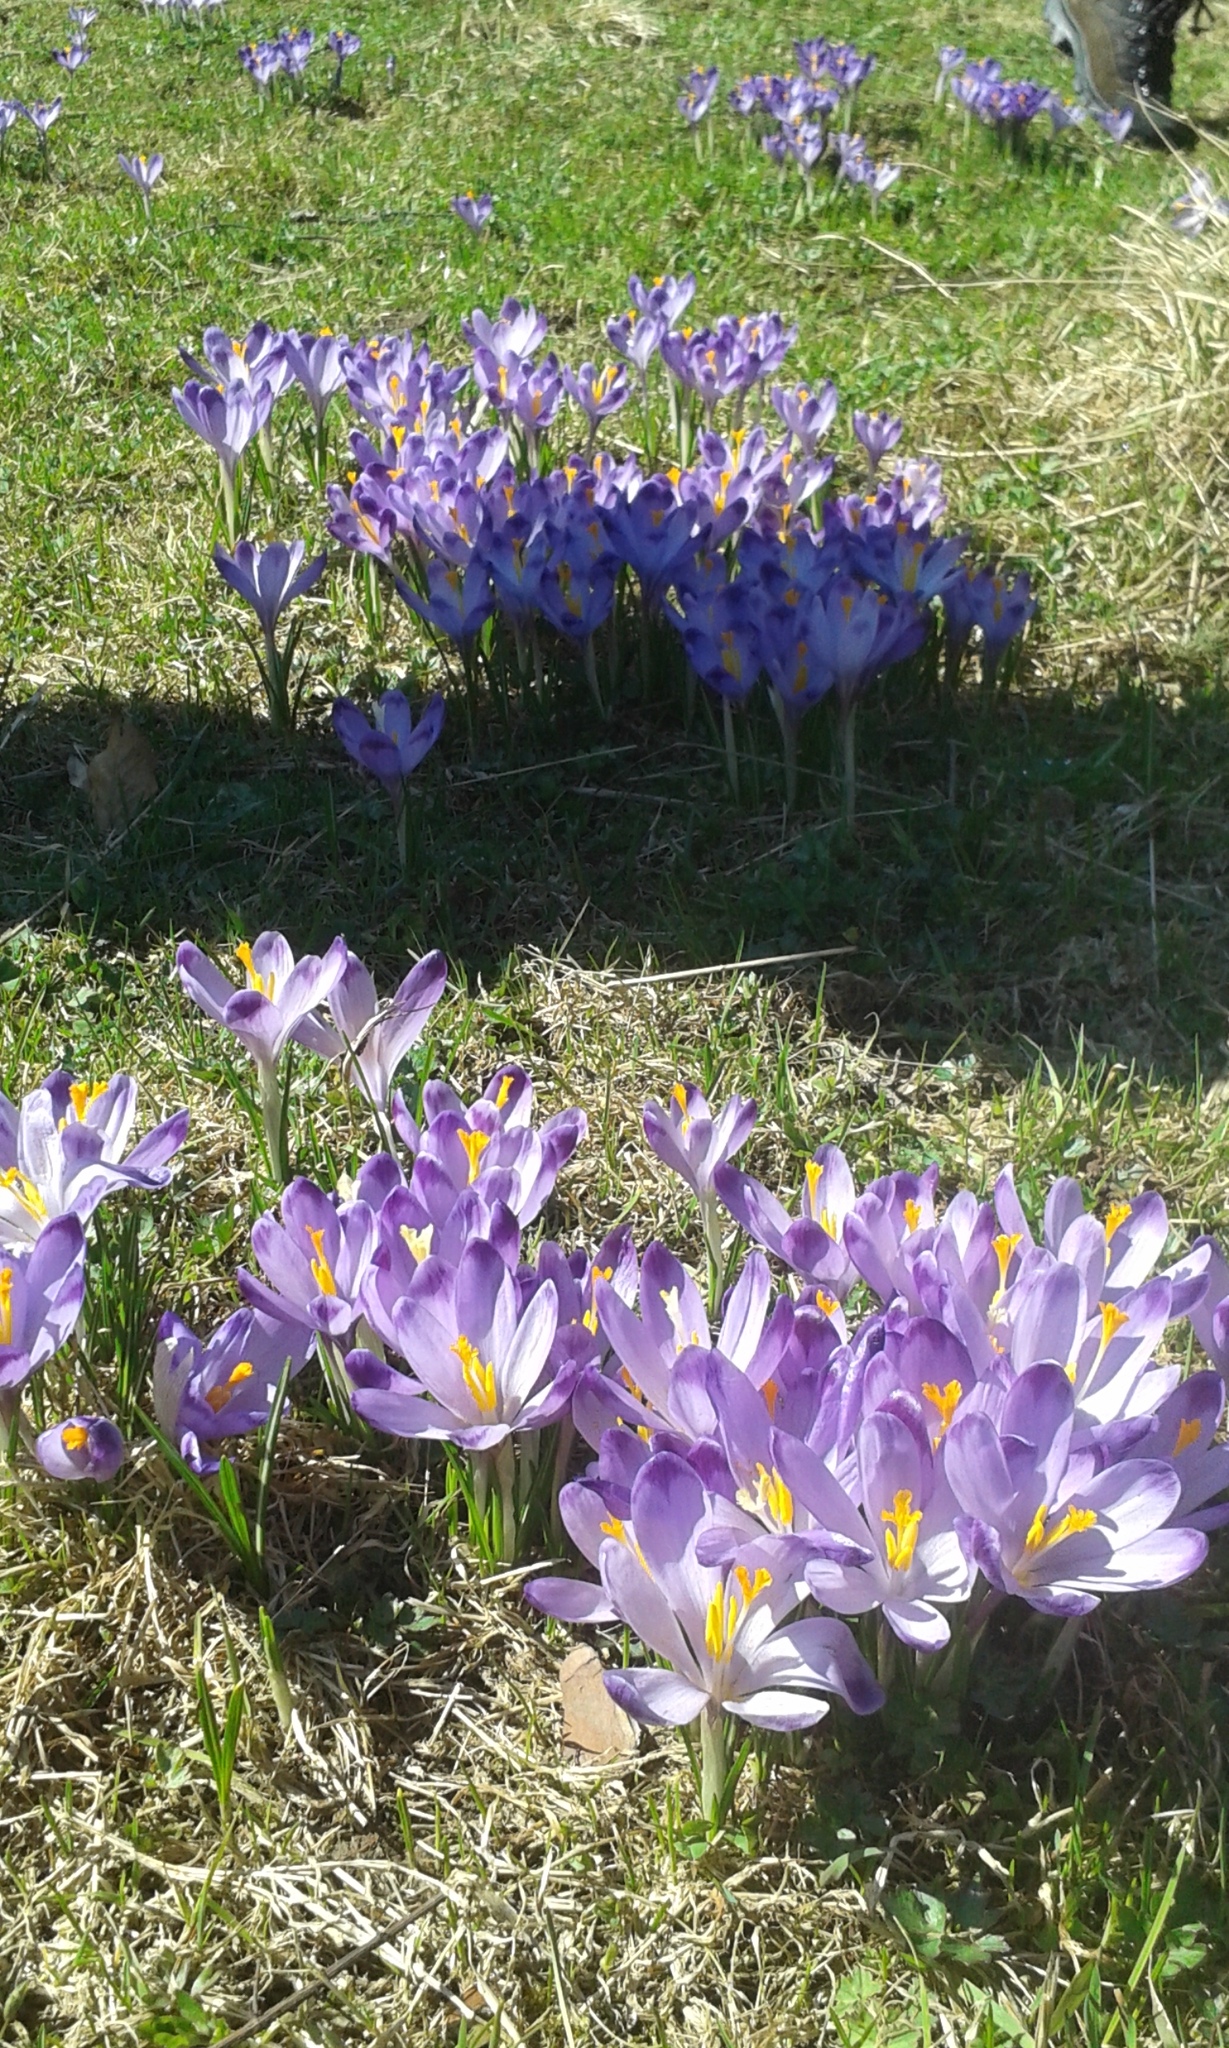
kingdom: Plantae
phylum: Tracheophyta
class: Liliopsida
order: Asparagales
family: Iridaceae
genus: Crocus
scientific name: Crocus heuffelianus
